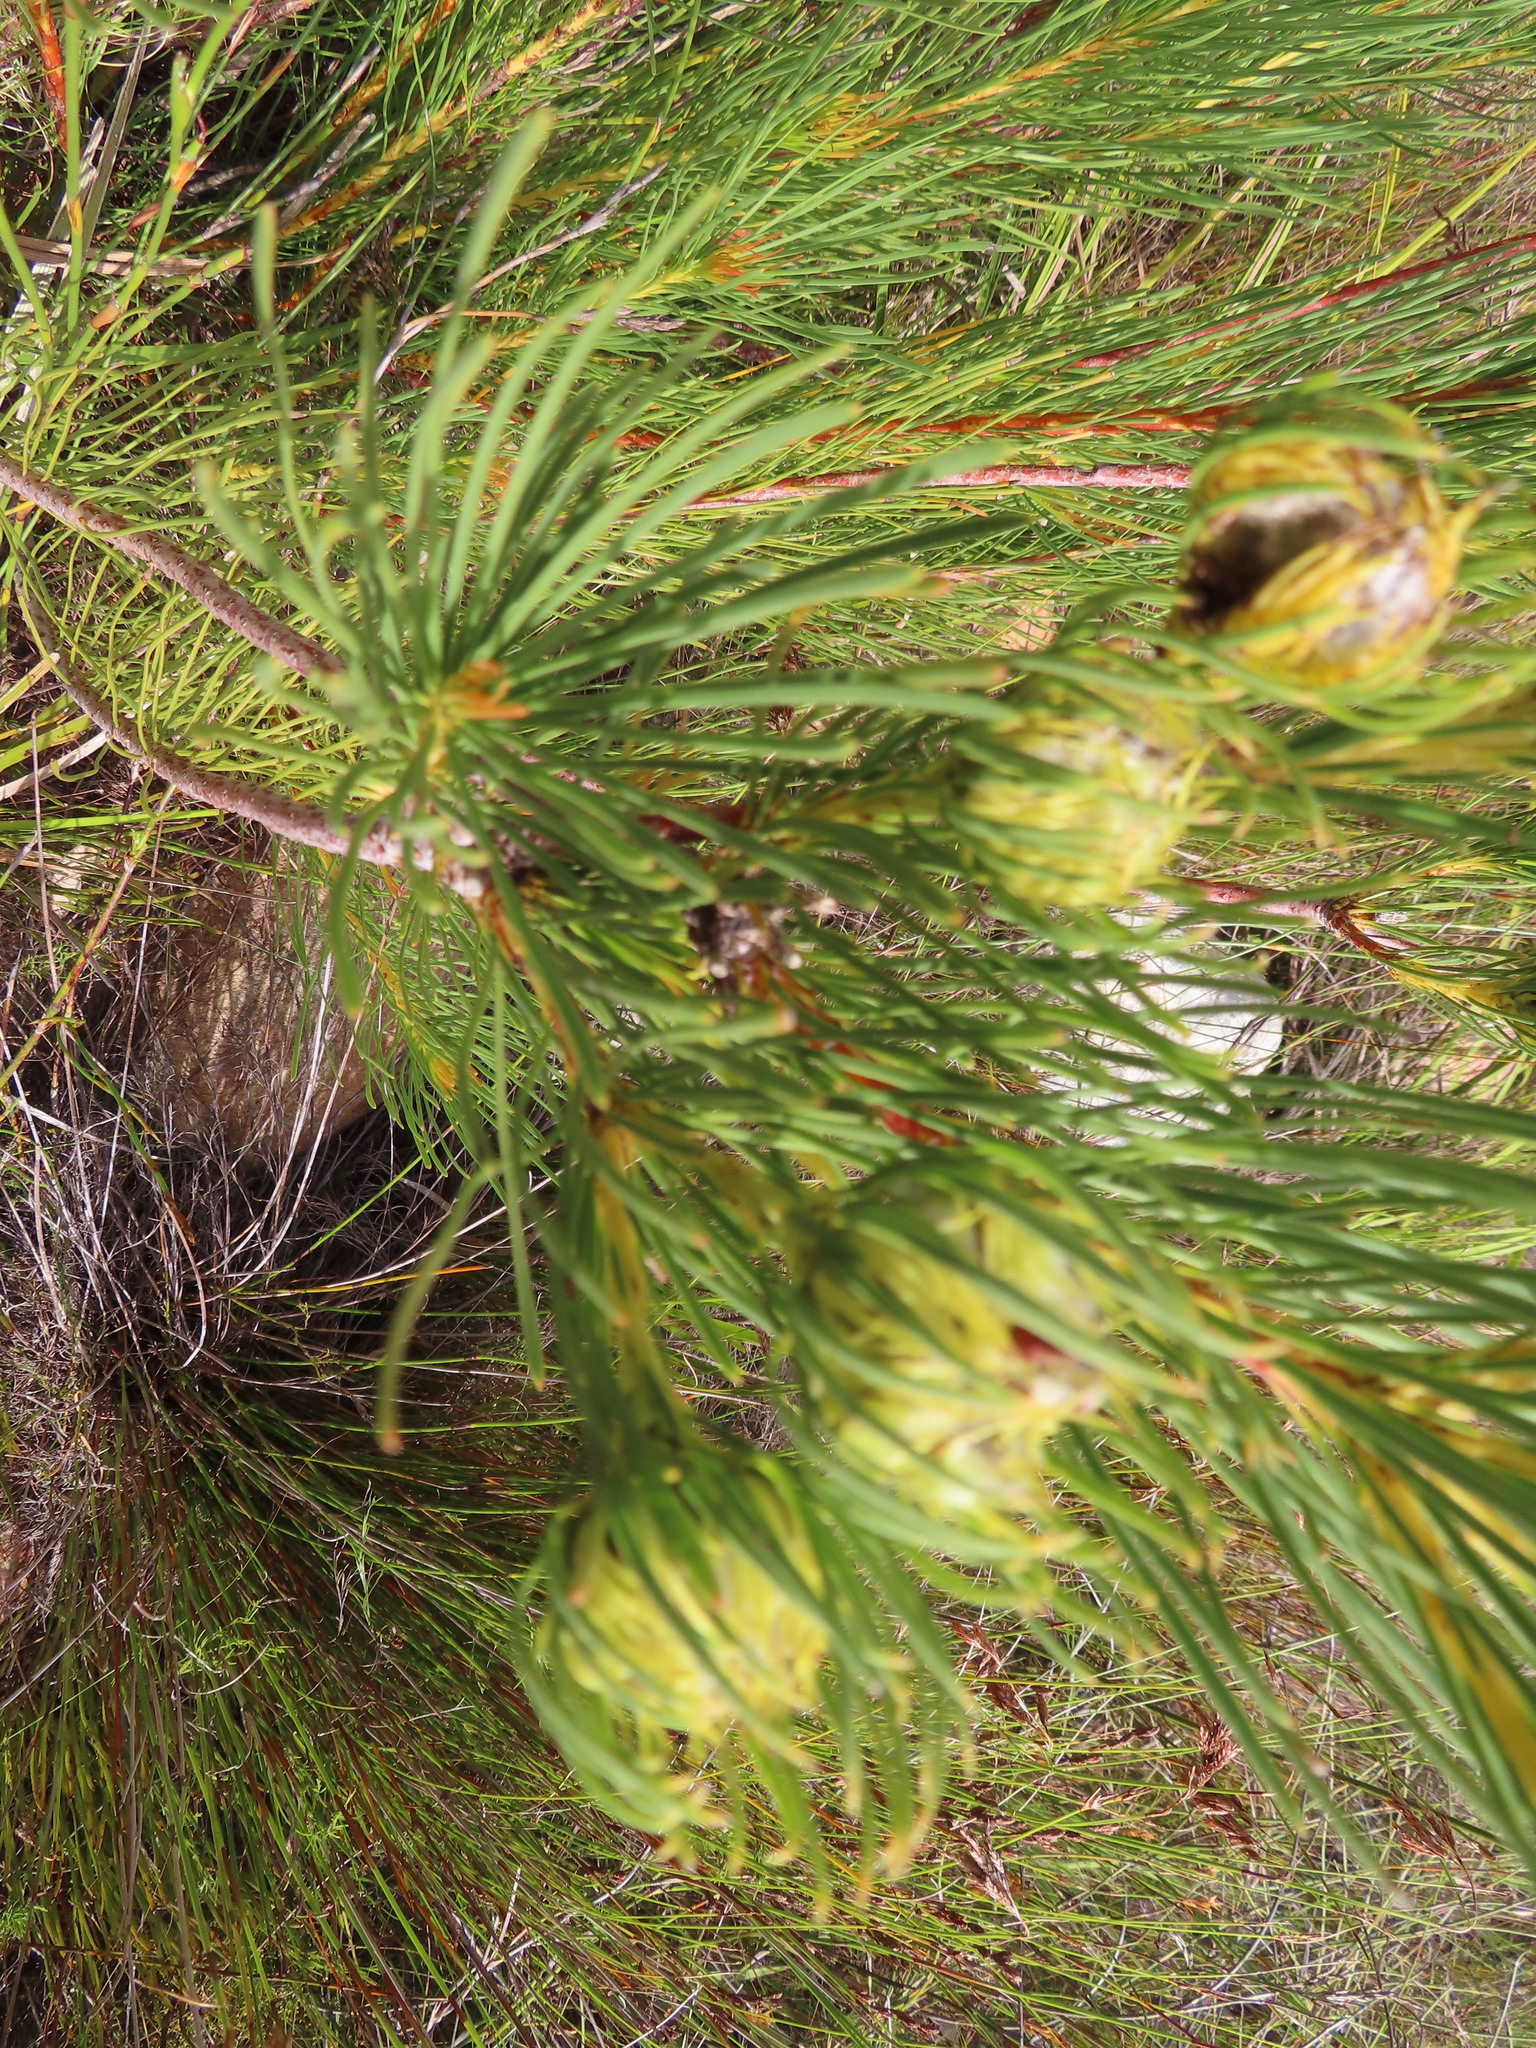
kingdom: Plantae
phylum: Tracheophyta
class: Magnoliopsida
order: Proteales
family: Proteaceae
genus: Aulax
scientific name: Aulax pallasia
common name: Needle-leaf featherbush
